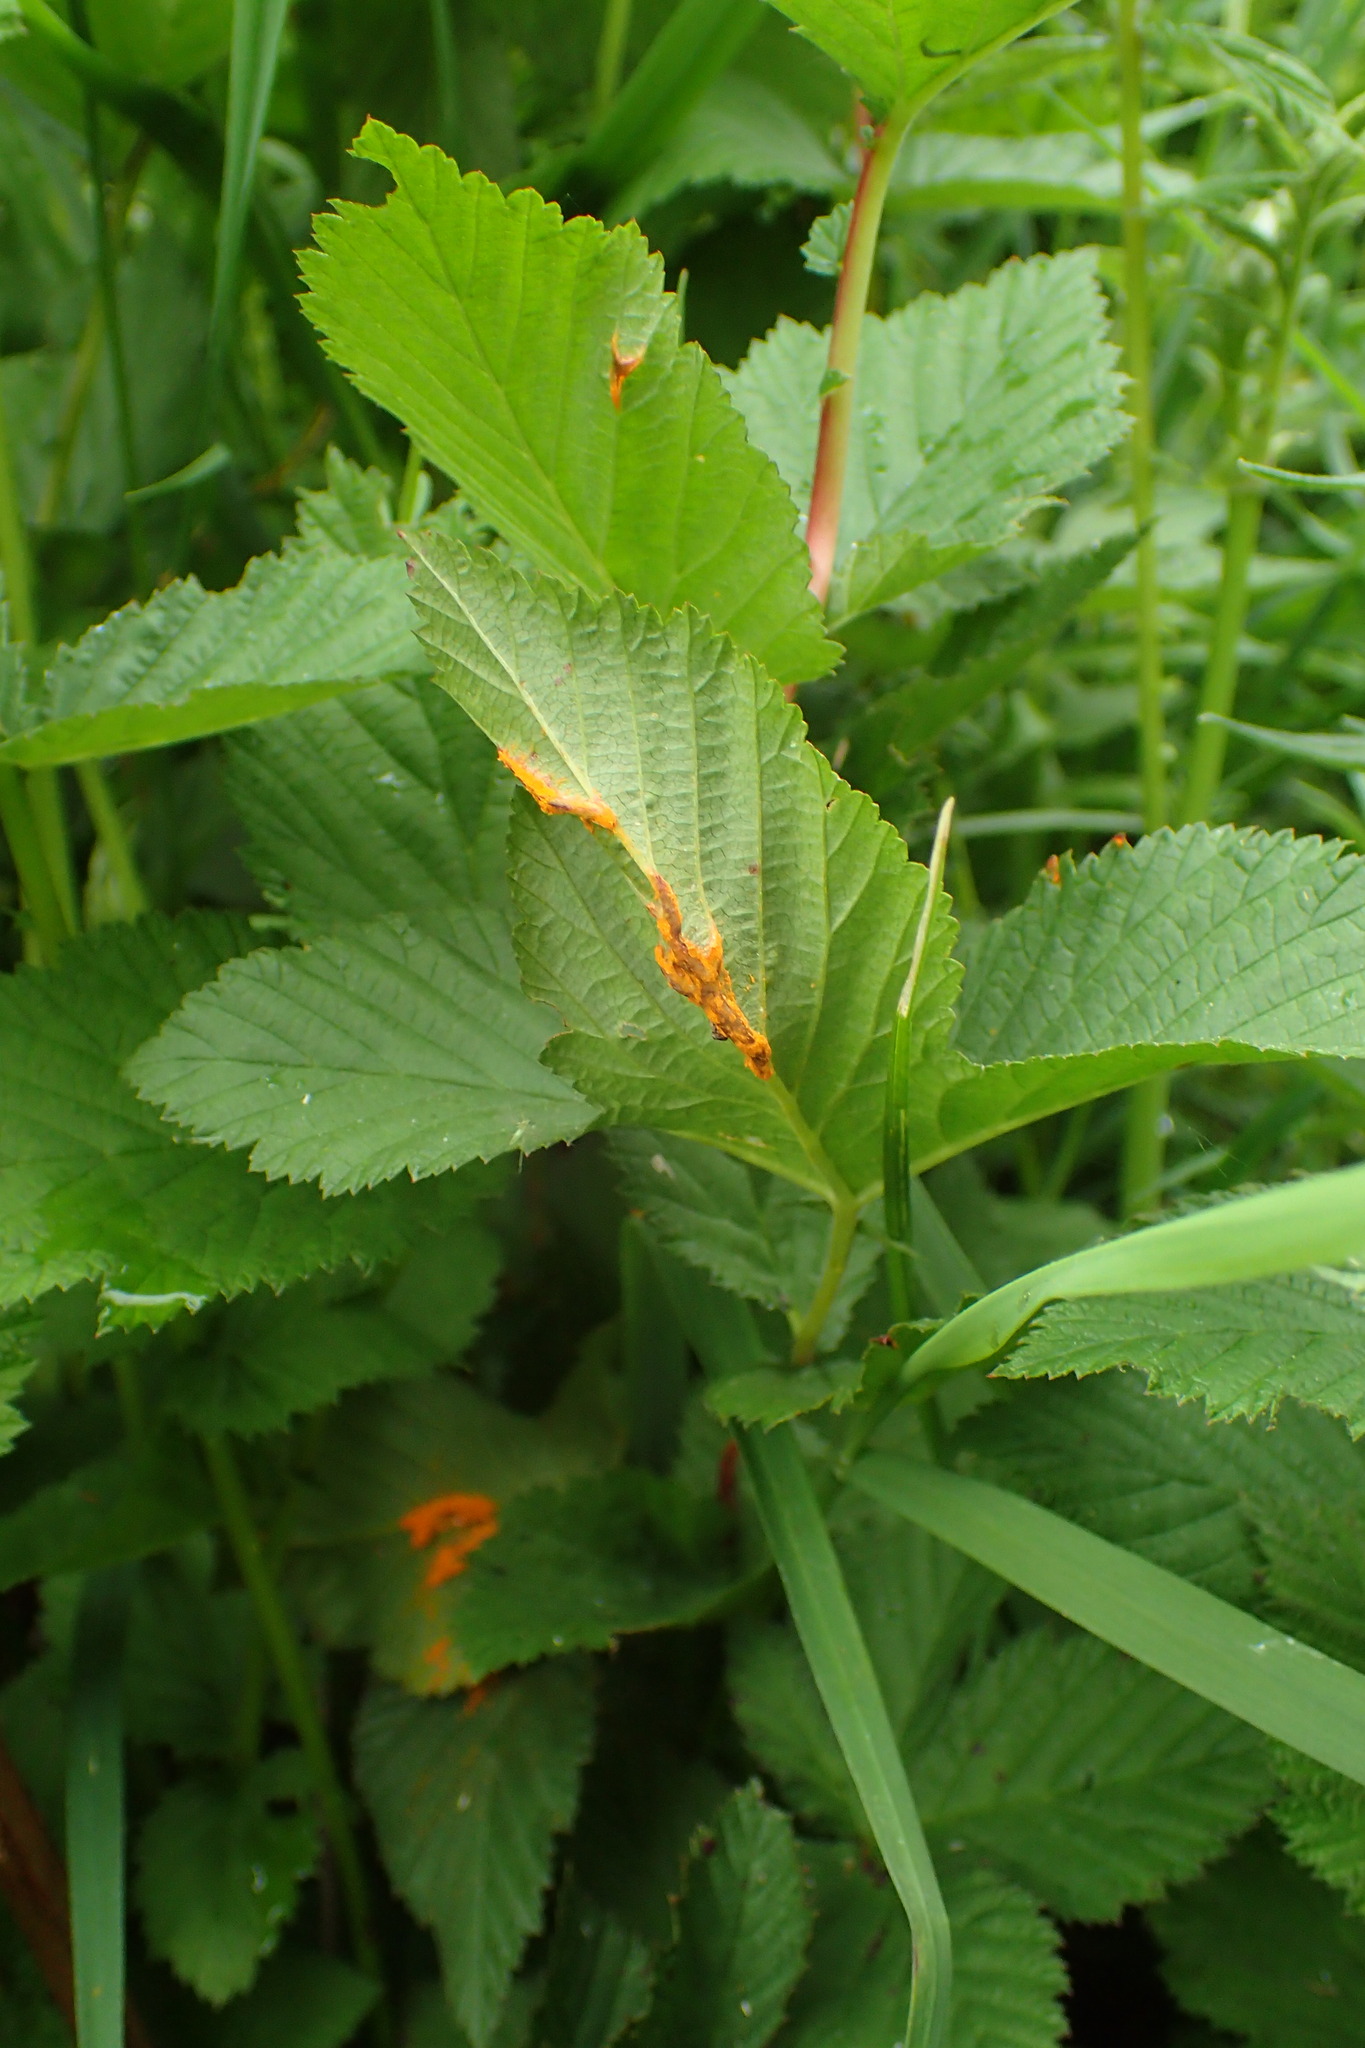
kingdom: Fungi
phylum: Basidiomycota
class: Pucciniomycetes
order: Pucciniales
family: Raveneliaceae
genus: Triphragmium
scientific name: Triphragmium ulmariae
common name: Meadowsweet rust
